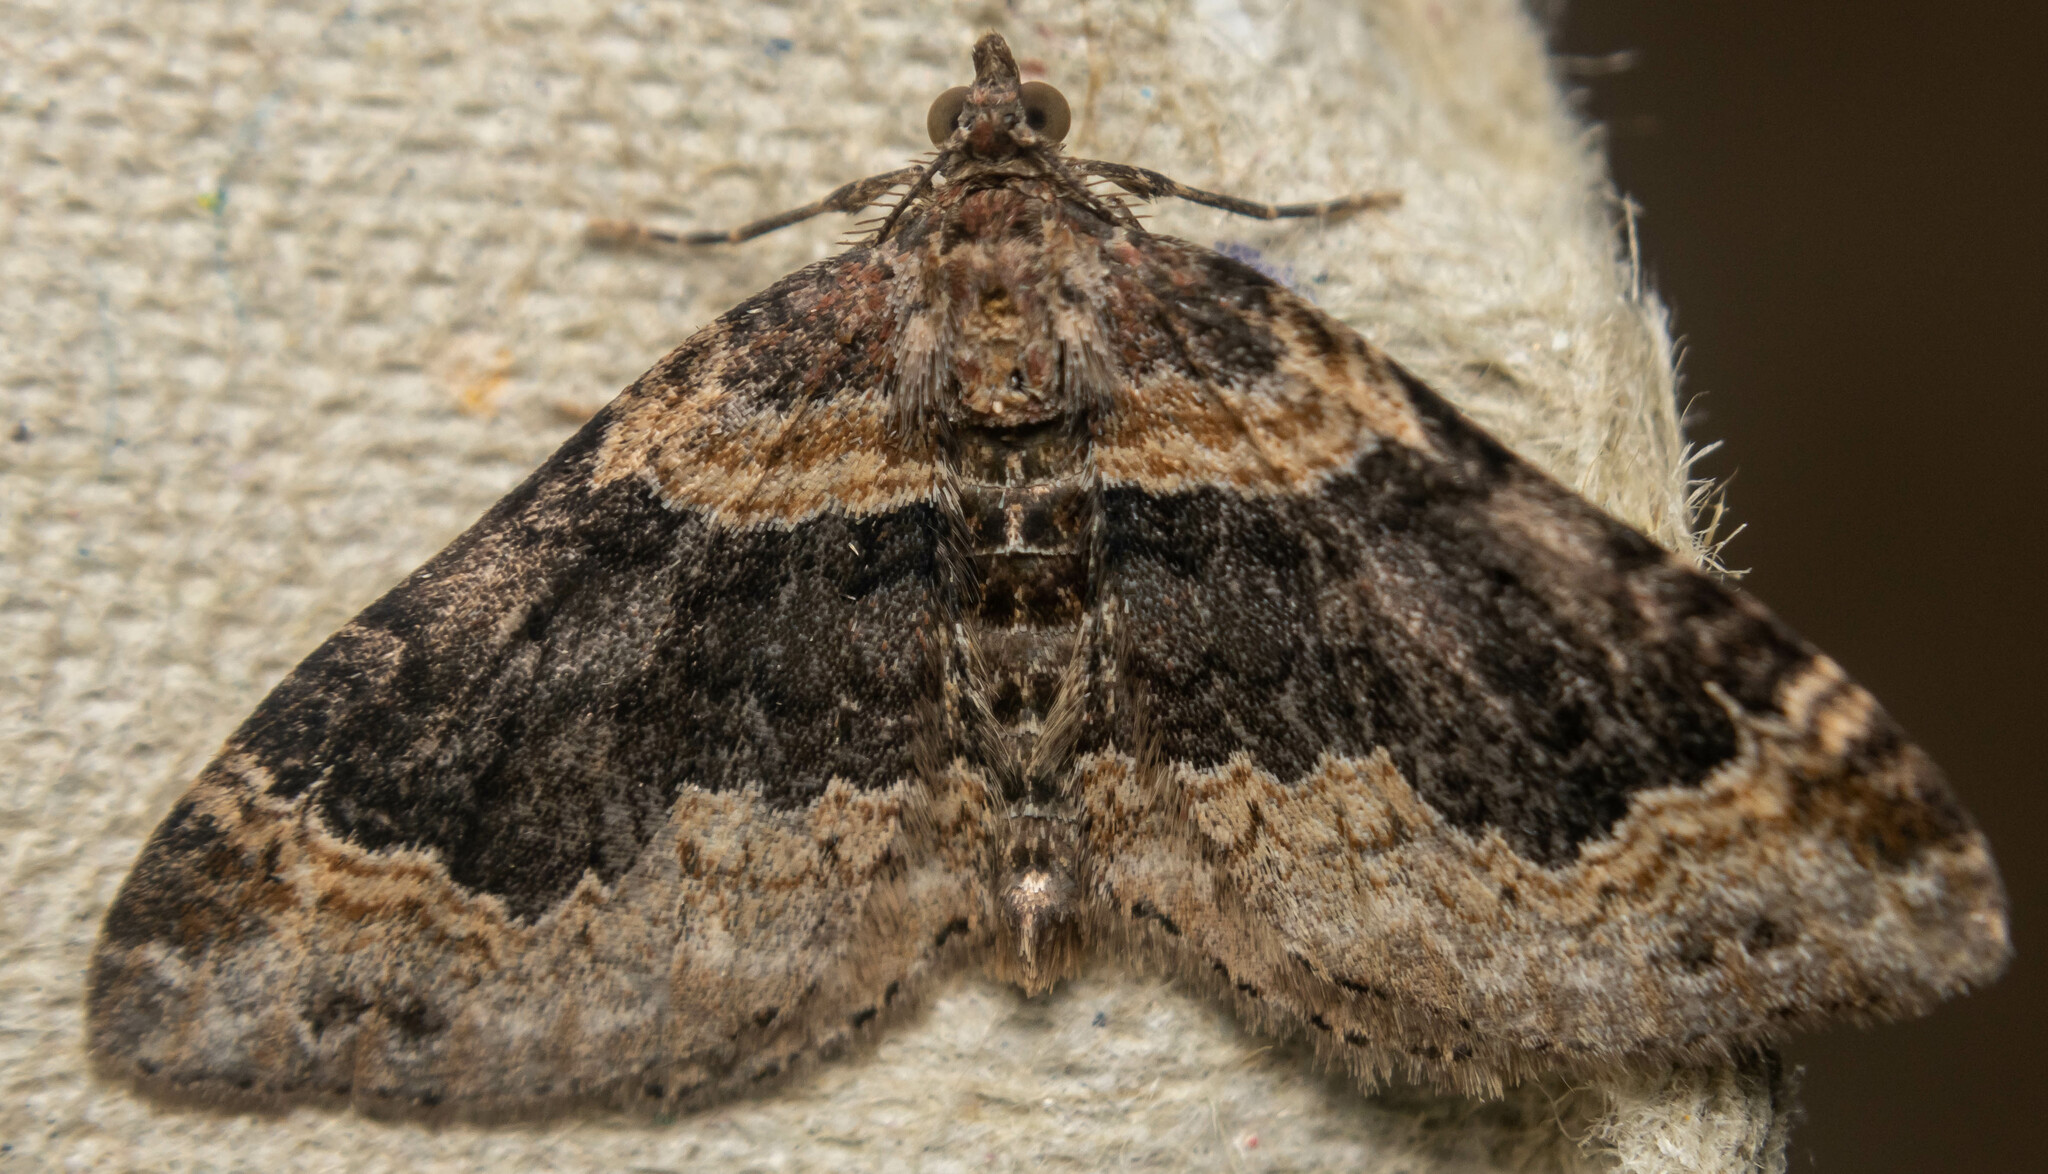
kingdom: Animalia
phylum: Arthropoda
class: Insecta
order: Lepidoptera
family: Geometridae
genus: Xanthorhoe
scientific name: Xanthorhoe ferrugata
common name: Dark-barred twin-spot carpet
